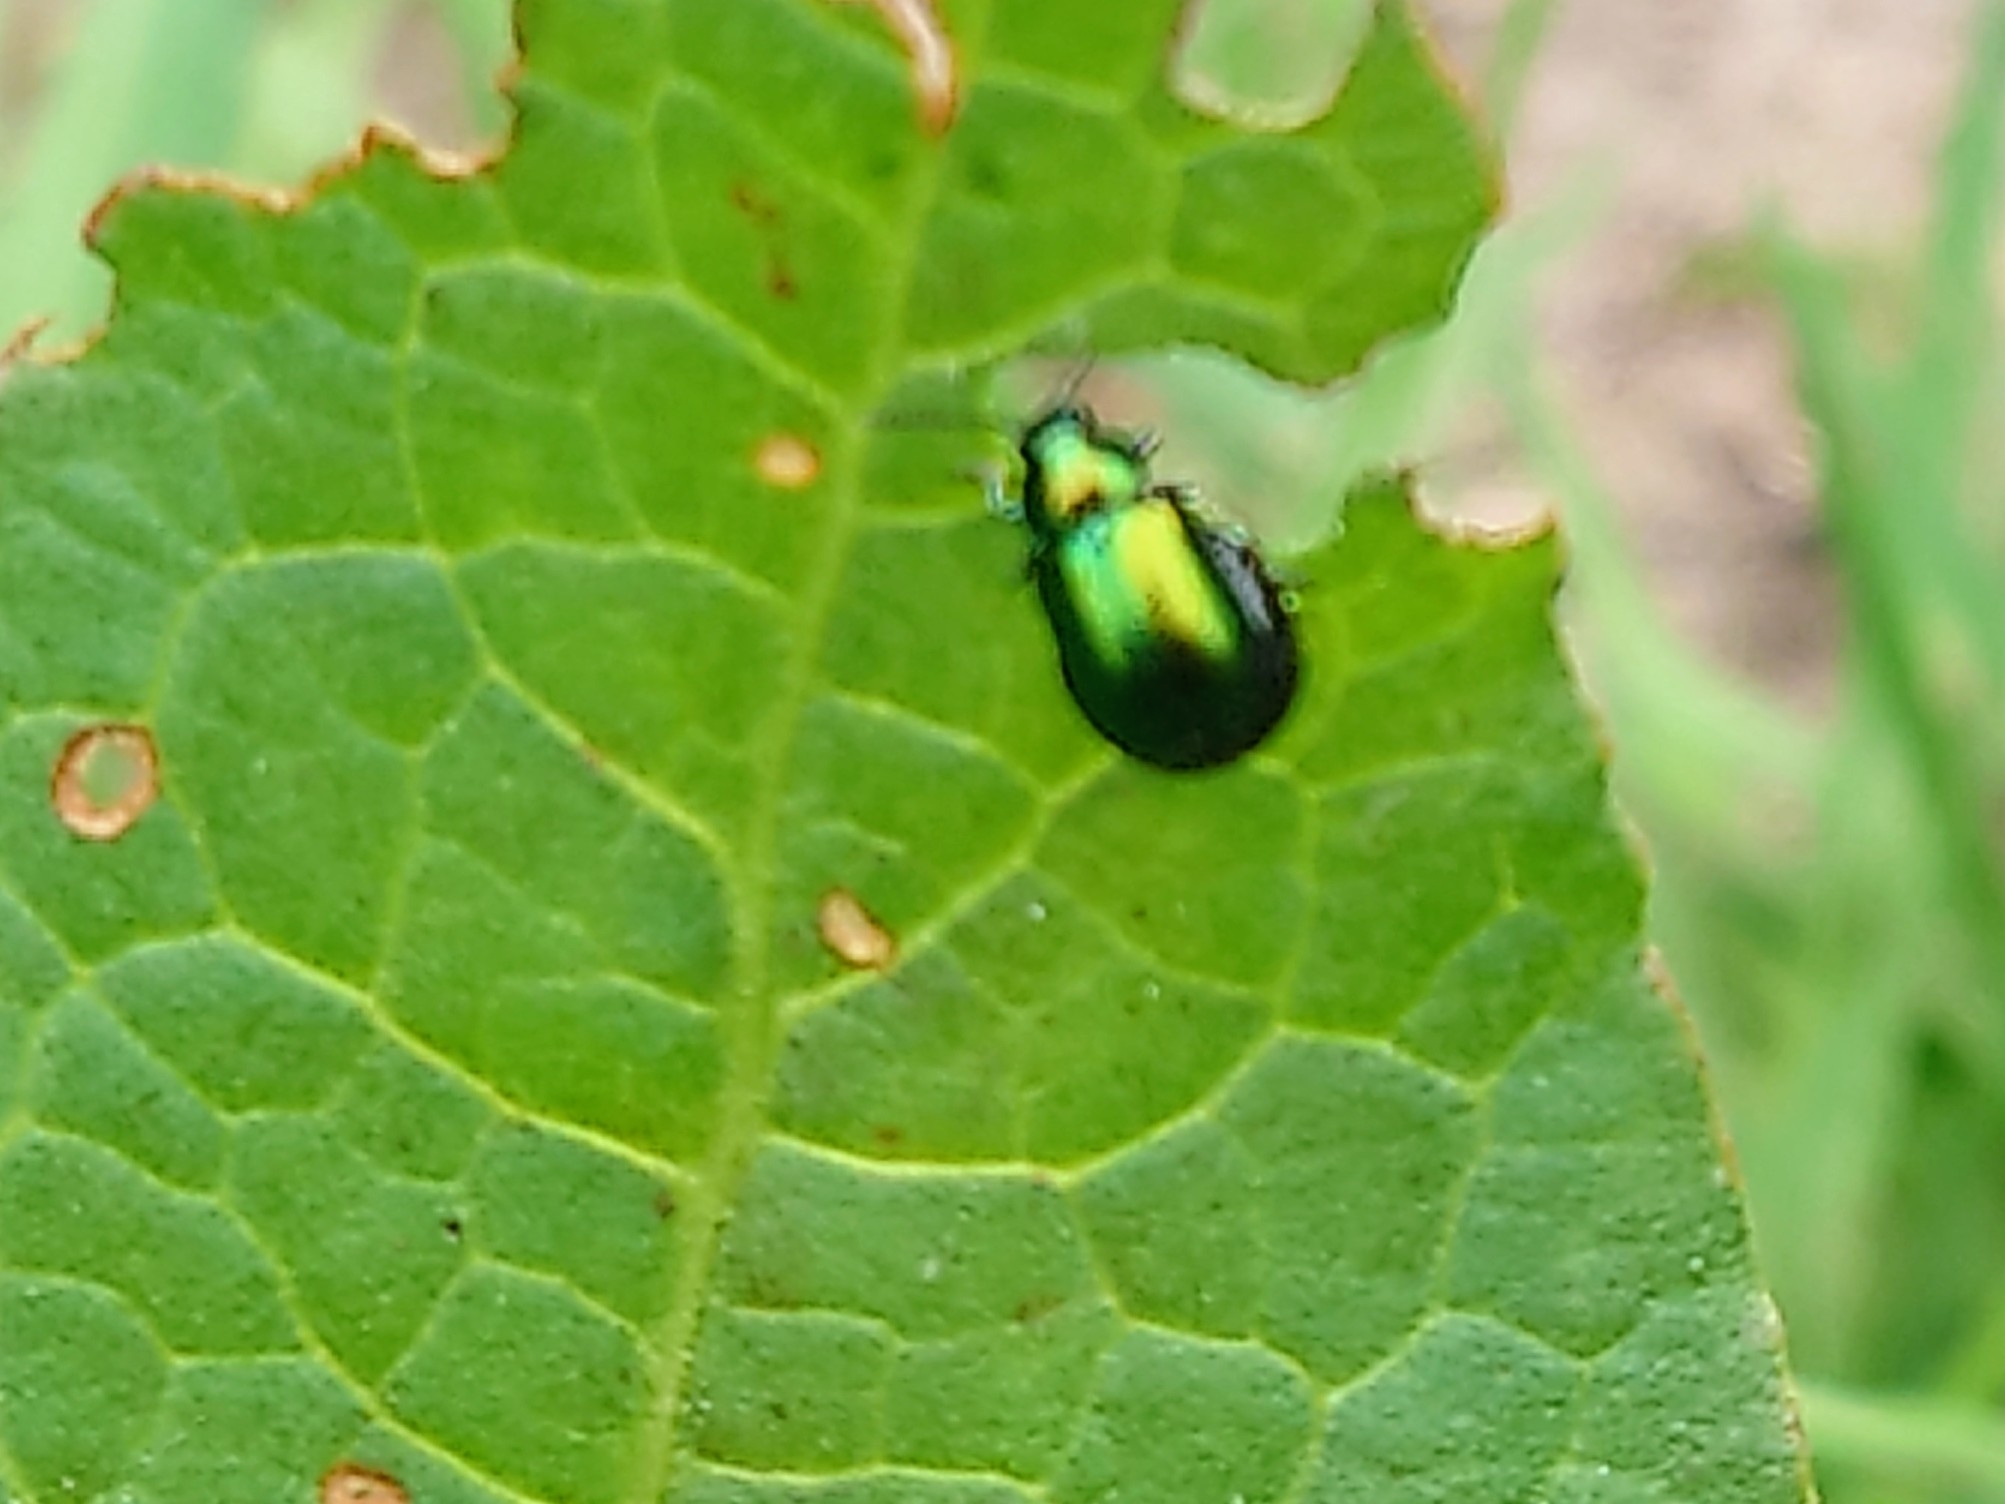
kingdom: Animalia
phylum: Arthropoda
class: Insecta
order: Coleoptera
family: Chrysomelidae
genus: Gastrophysa
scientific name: Gastrophysa viridula
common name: Green dock beetle
